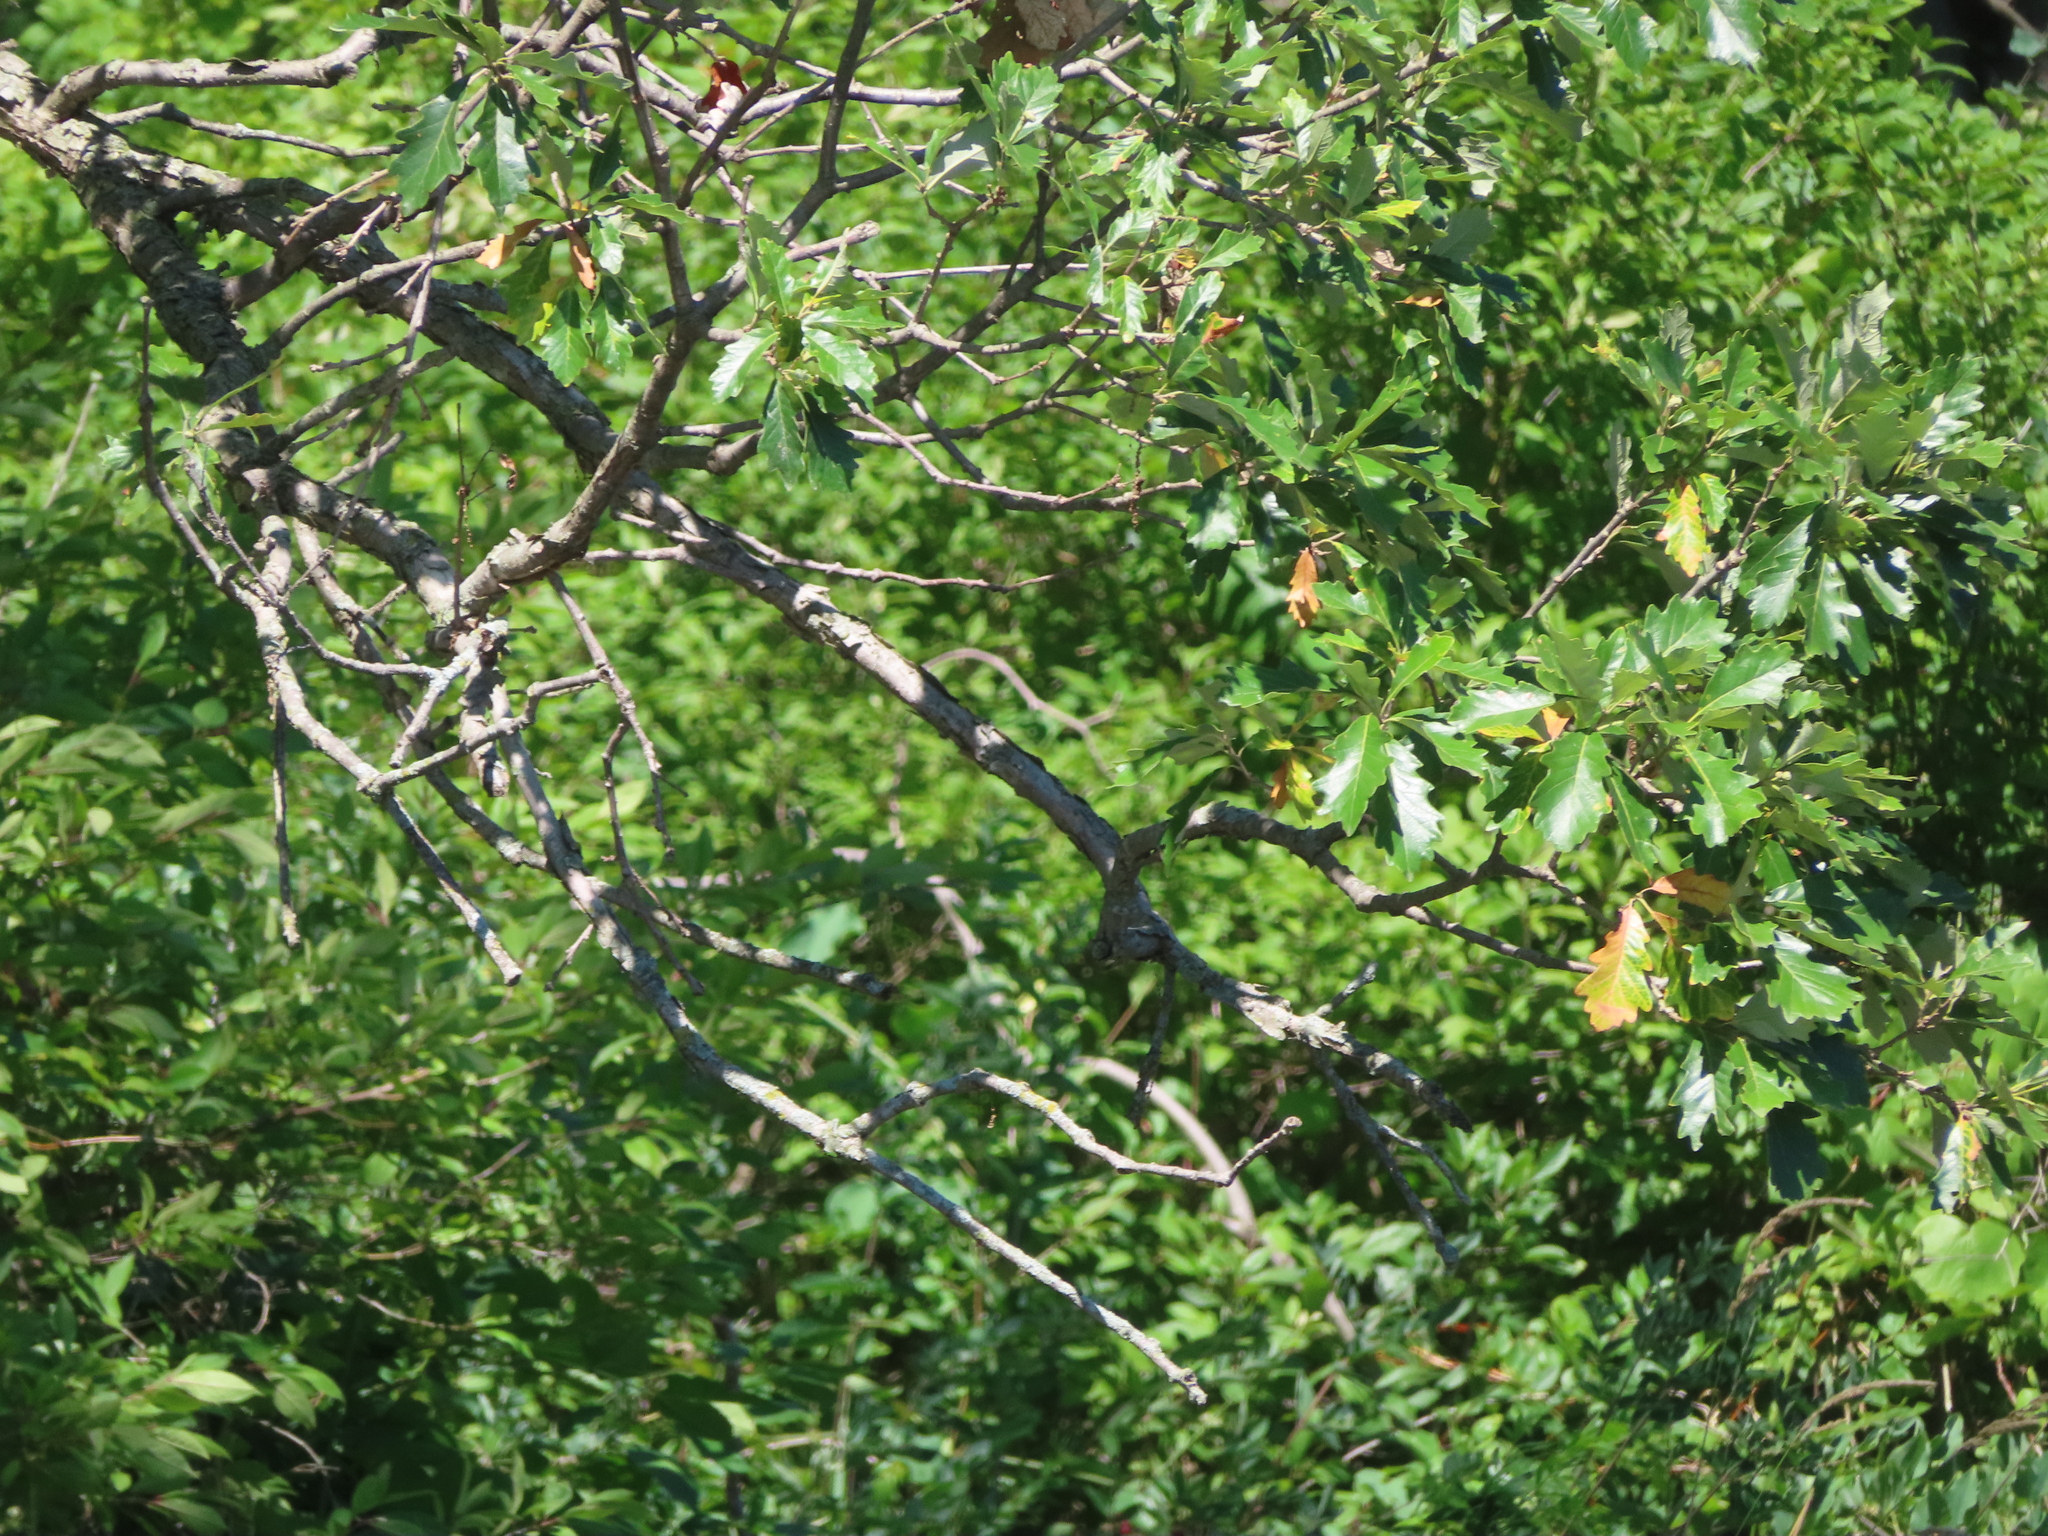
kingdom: Plantae
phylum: Tracheophyta
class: Magnoliopsida
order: Fagales
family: Fagaceae
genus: Quercus
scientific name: Quercus bicolor
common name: Swamp white oak
